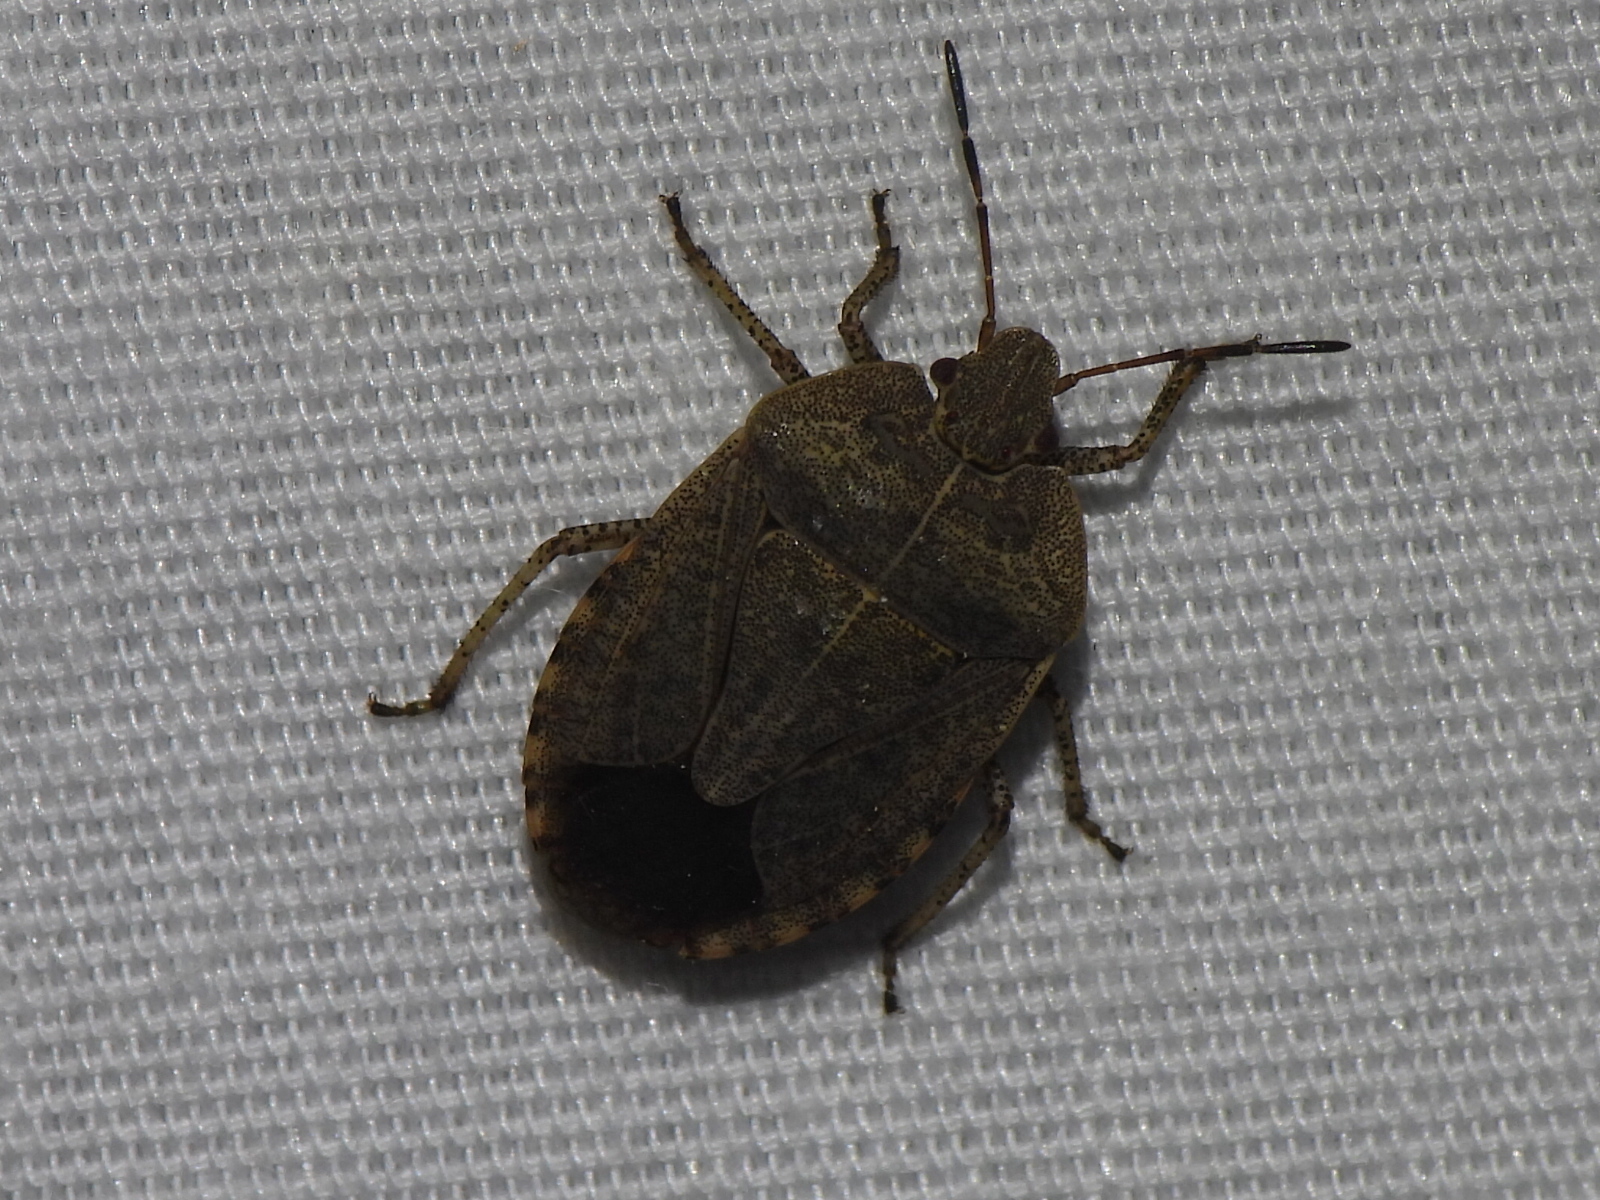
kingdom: Animalia
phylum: Arthropoda
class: Insecta
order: Hemiptera
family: Pentatomidae
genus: Menecles
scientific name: Menecles insertus
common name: Elf shoe stink bug
